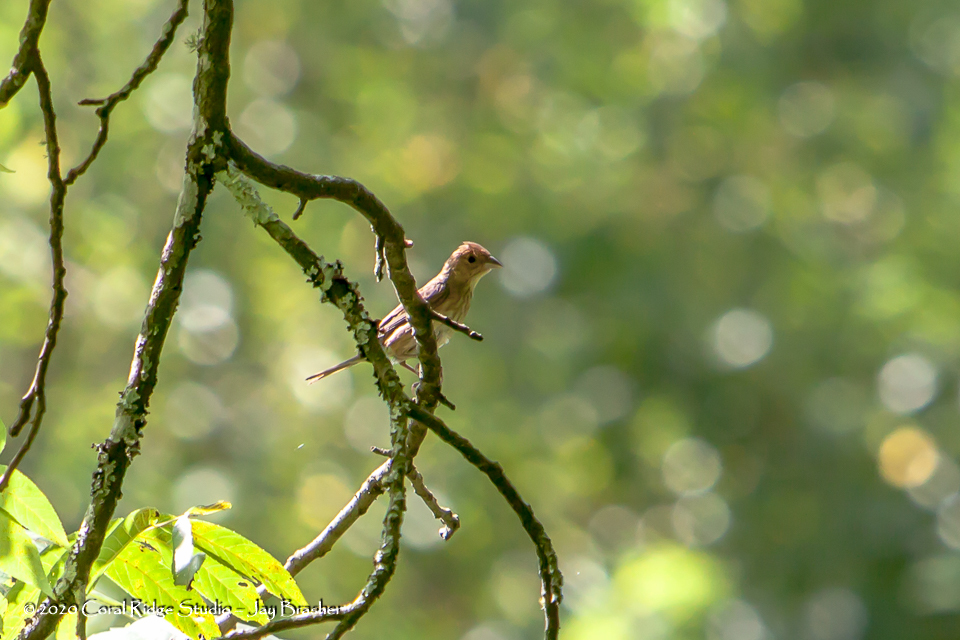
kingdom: Animalia
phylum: Chordata
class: Aves
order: Passeriformes
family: Cardinalidae
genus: Passerina
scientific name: Passerina cyanea
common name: Indigo bunting
